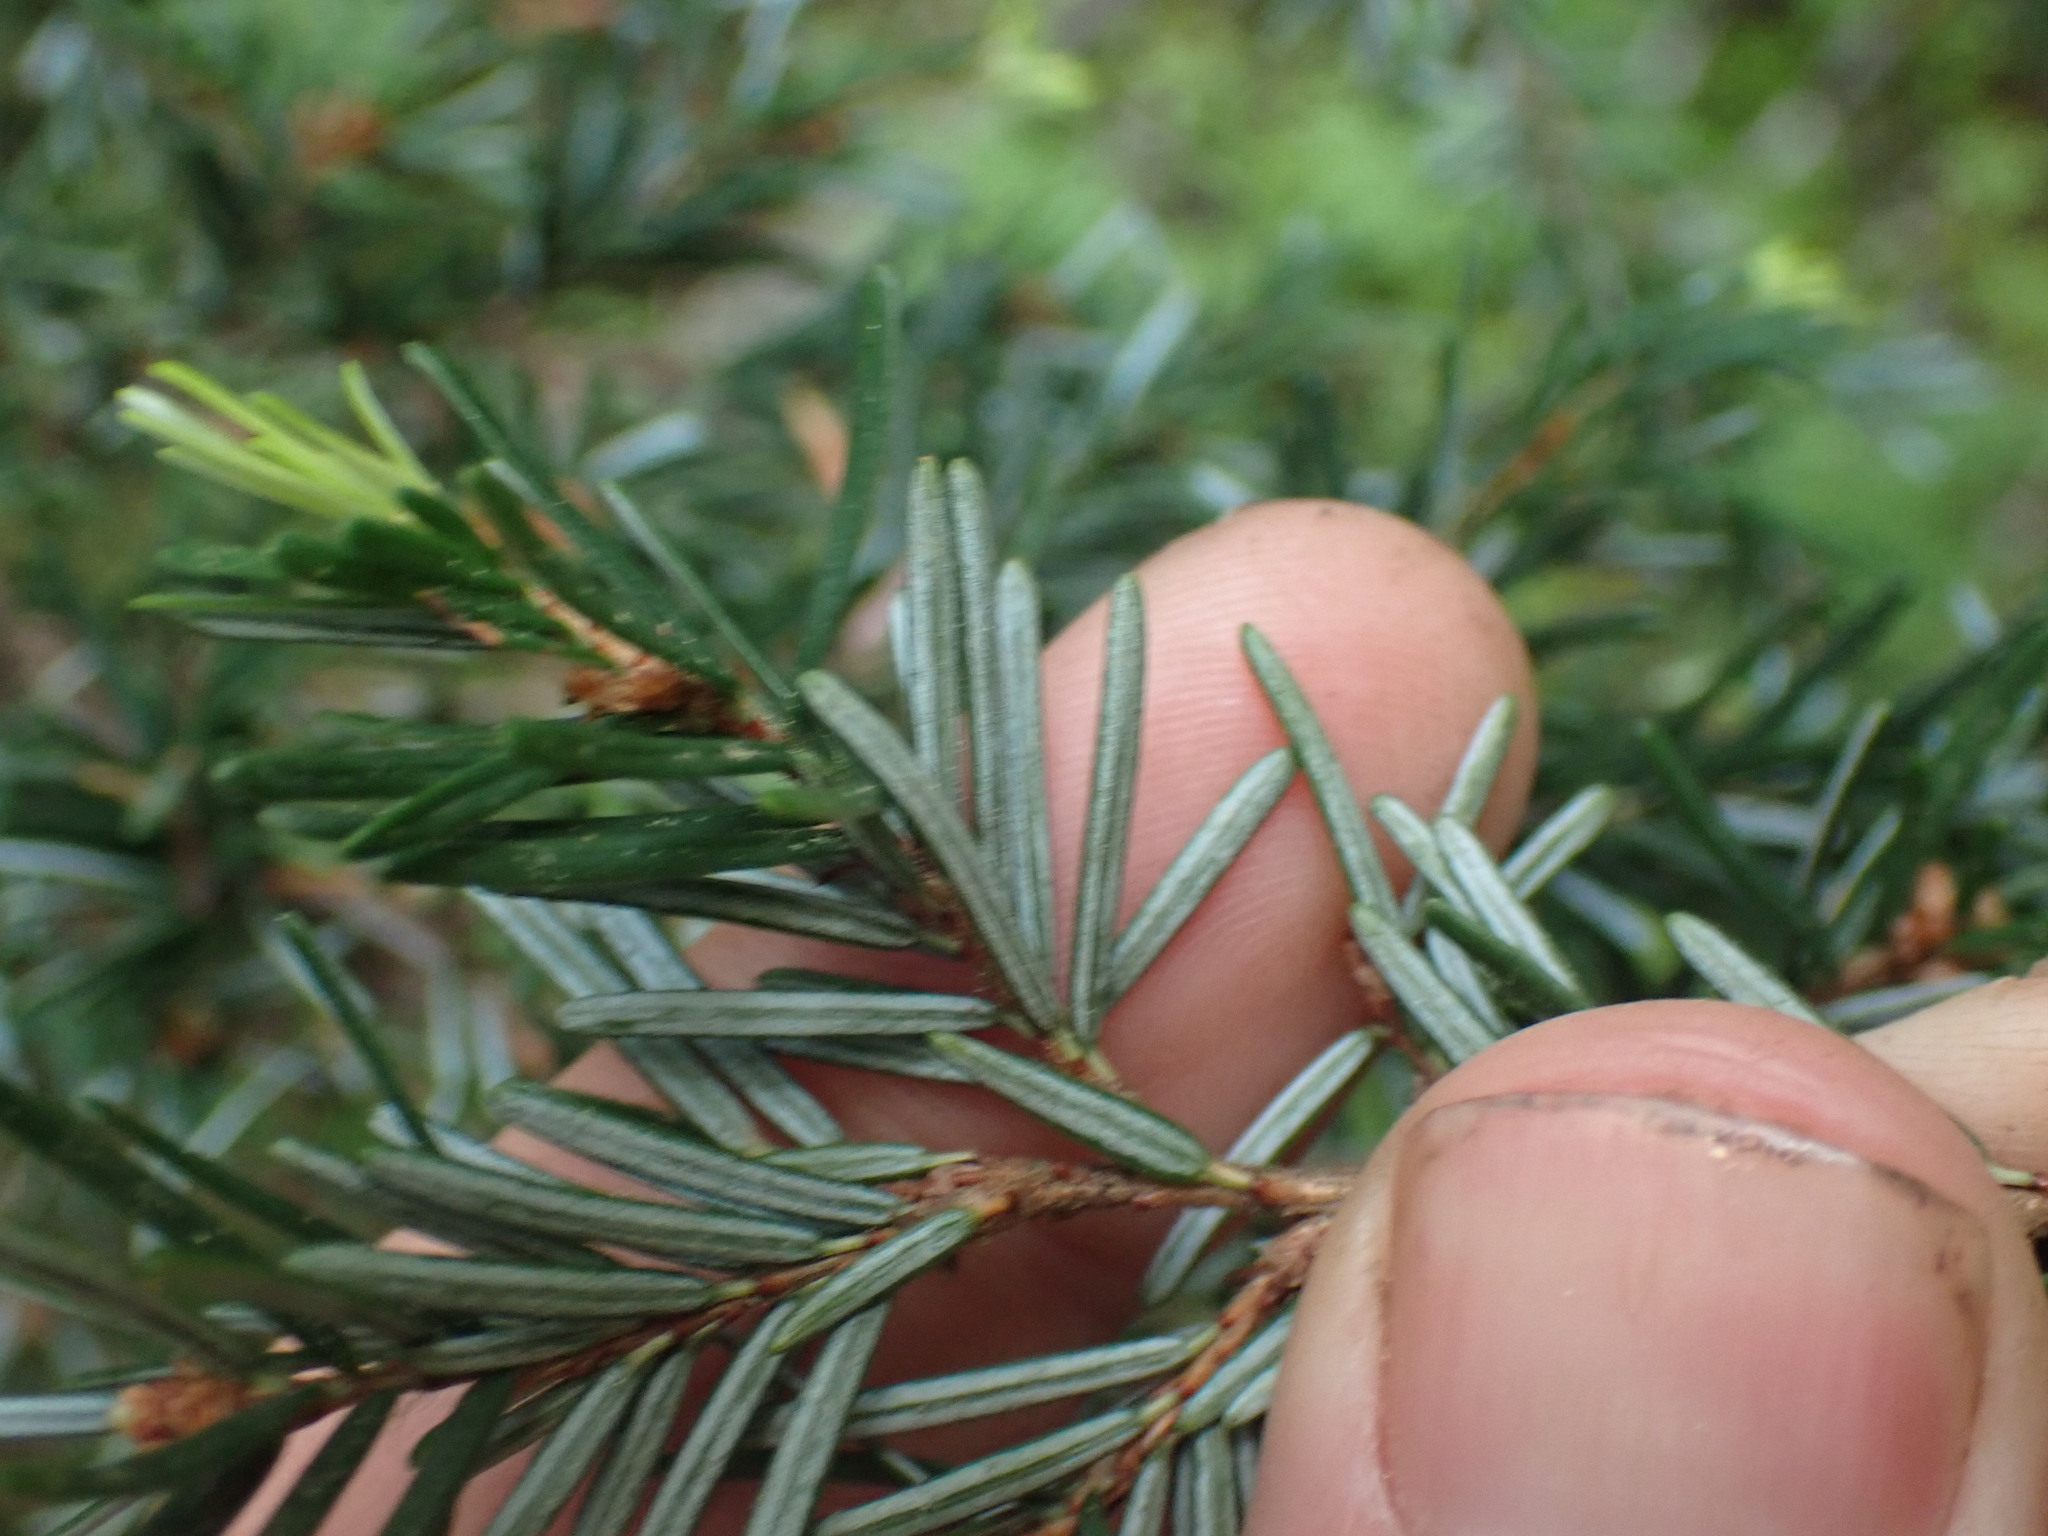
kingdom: Plantae
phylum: Tracheophyta
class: Pinopsida
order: Pinales
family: Pinaceae
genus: Tsuga
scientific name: Tsuga heterophylla
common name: Western hemlock
